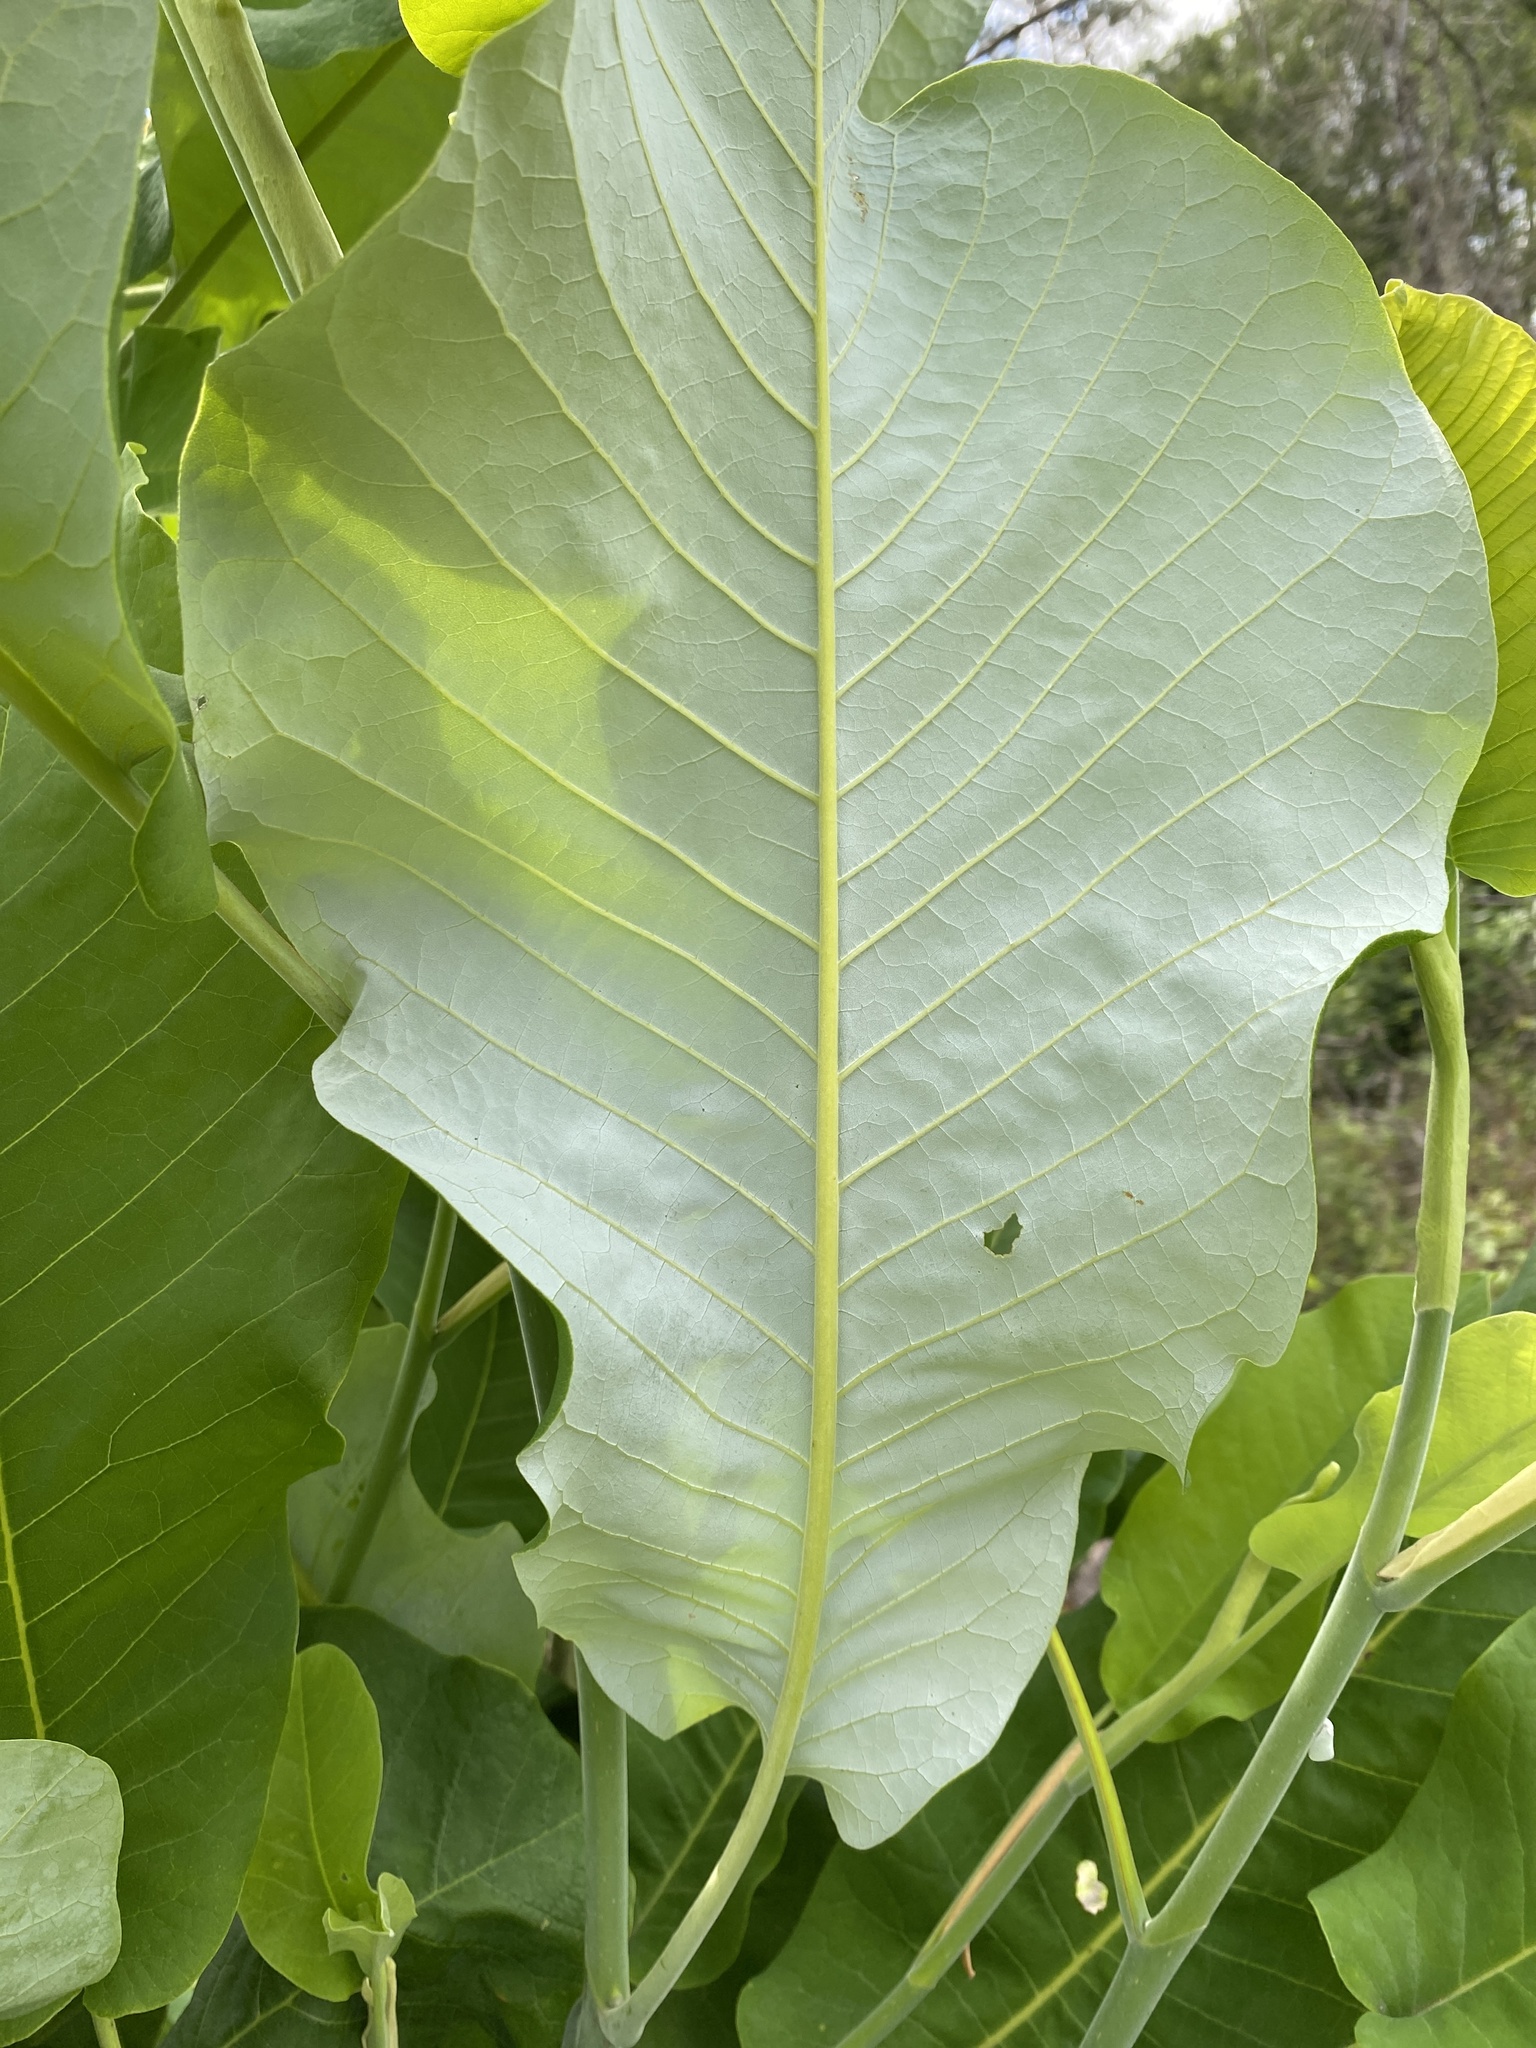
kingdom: Plantae
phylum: Tracheophyta
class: Magnoliopsida
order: Magnoliales
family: Magnoliaceae
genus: Magnolia
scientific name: Magnolia ashei
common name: Ashe's magnolia
